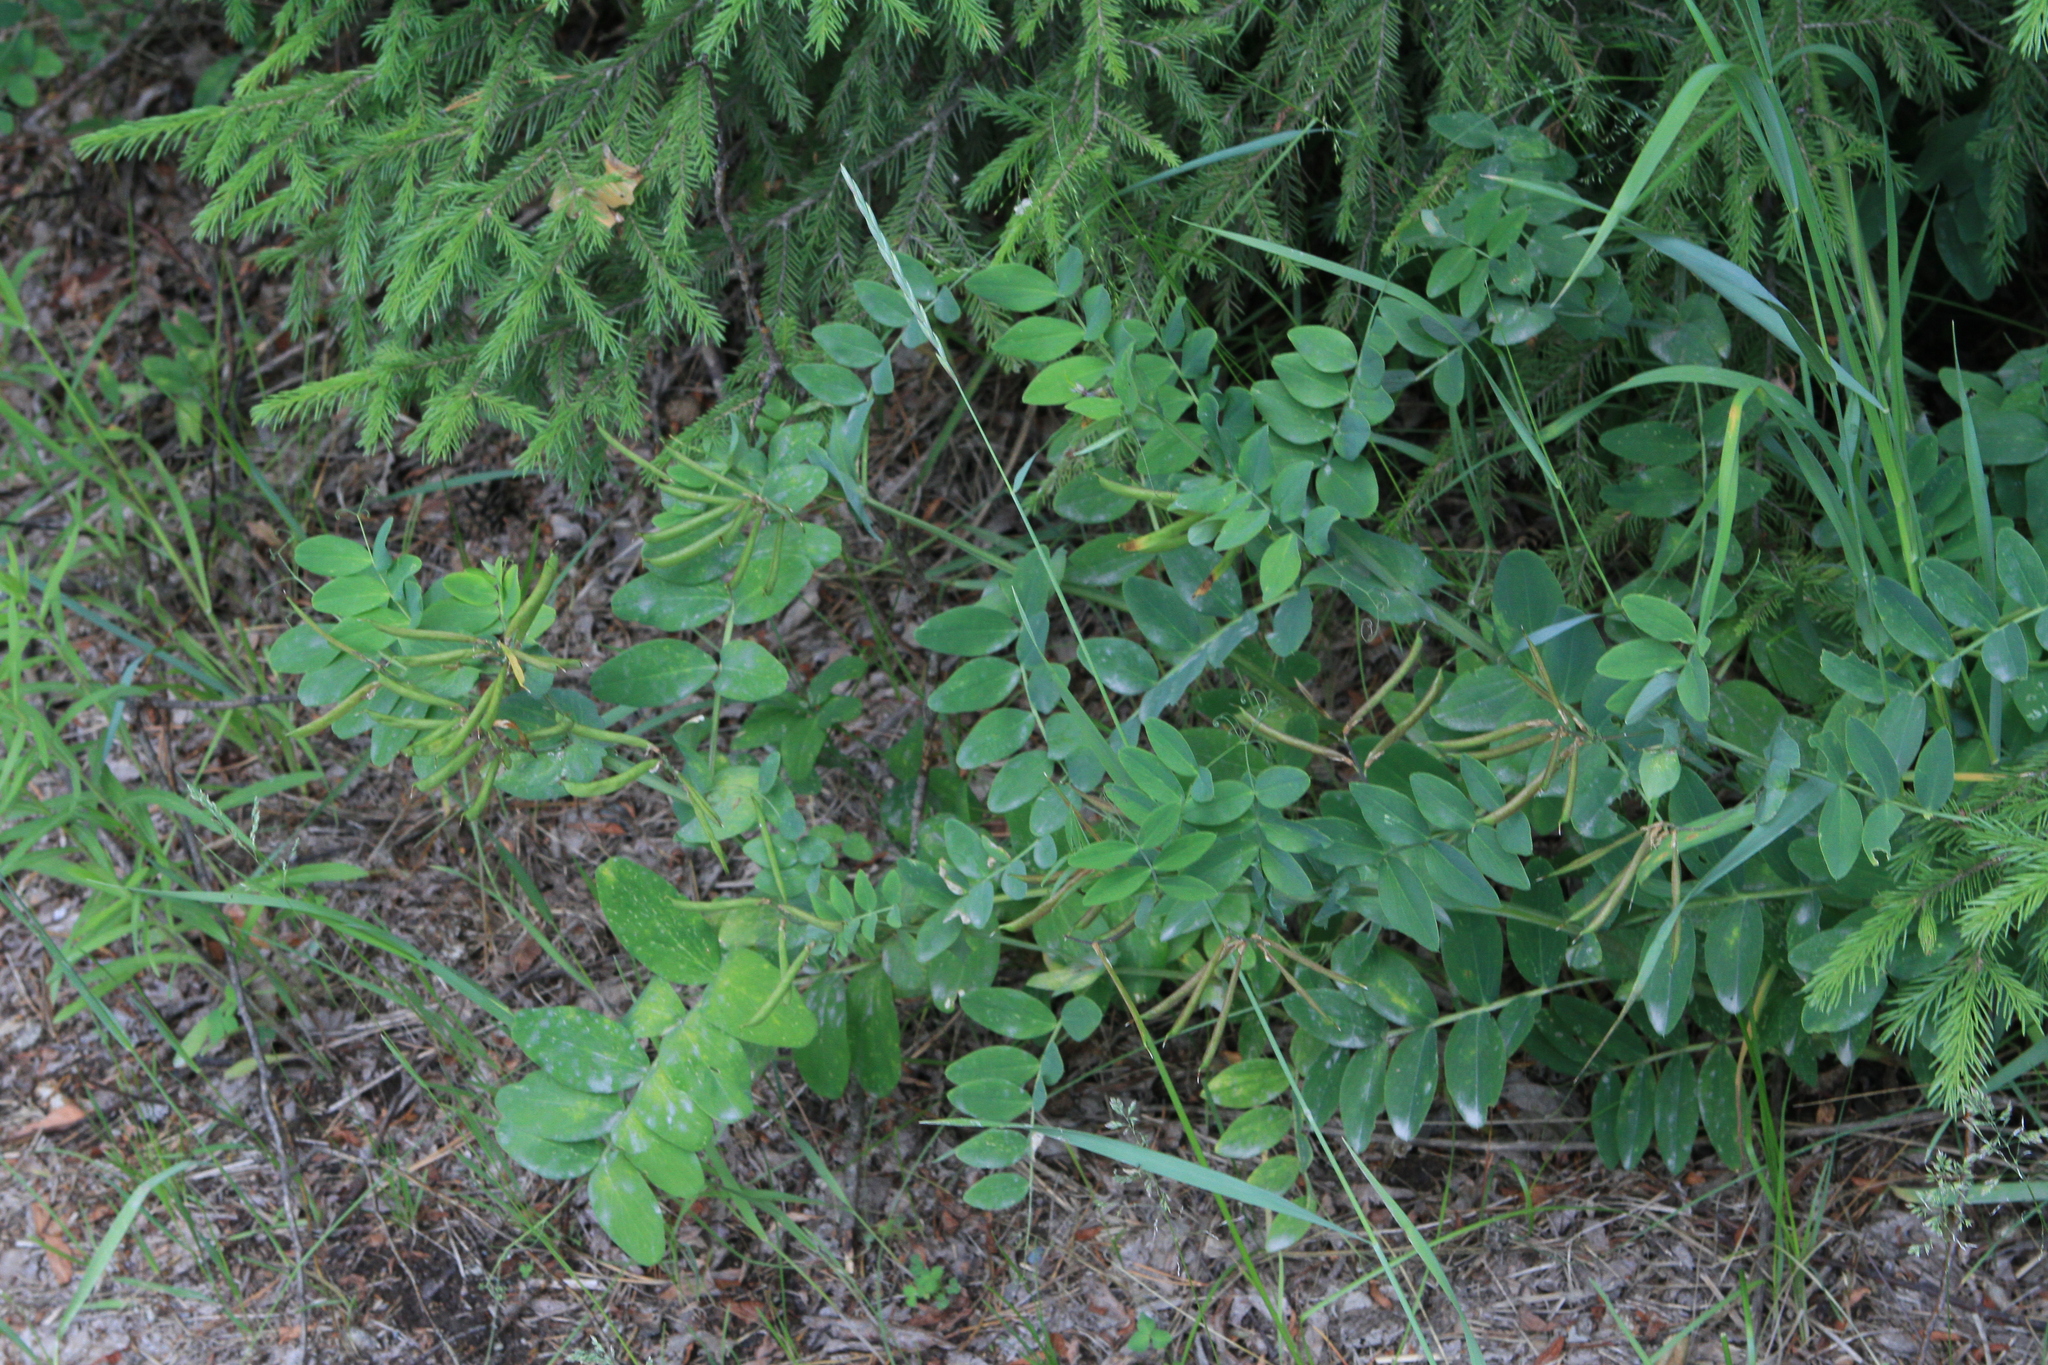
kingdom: Plantae
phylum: Tracheophyta
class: Magnoliopsida
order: Fabales
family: Fabaceae
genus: Lathyrus
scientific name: Lathyrus pisiformis
